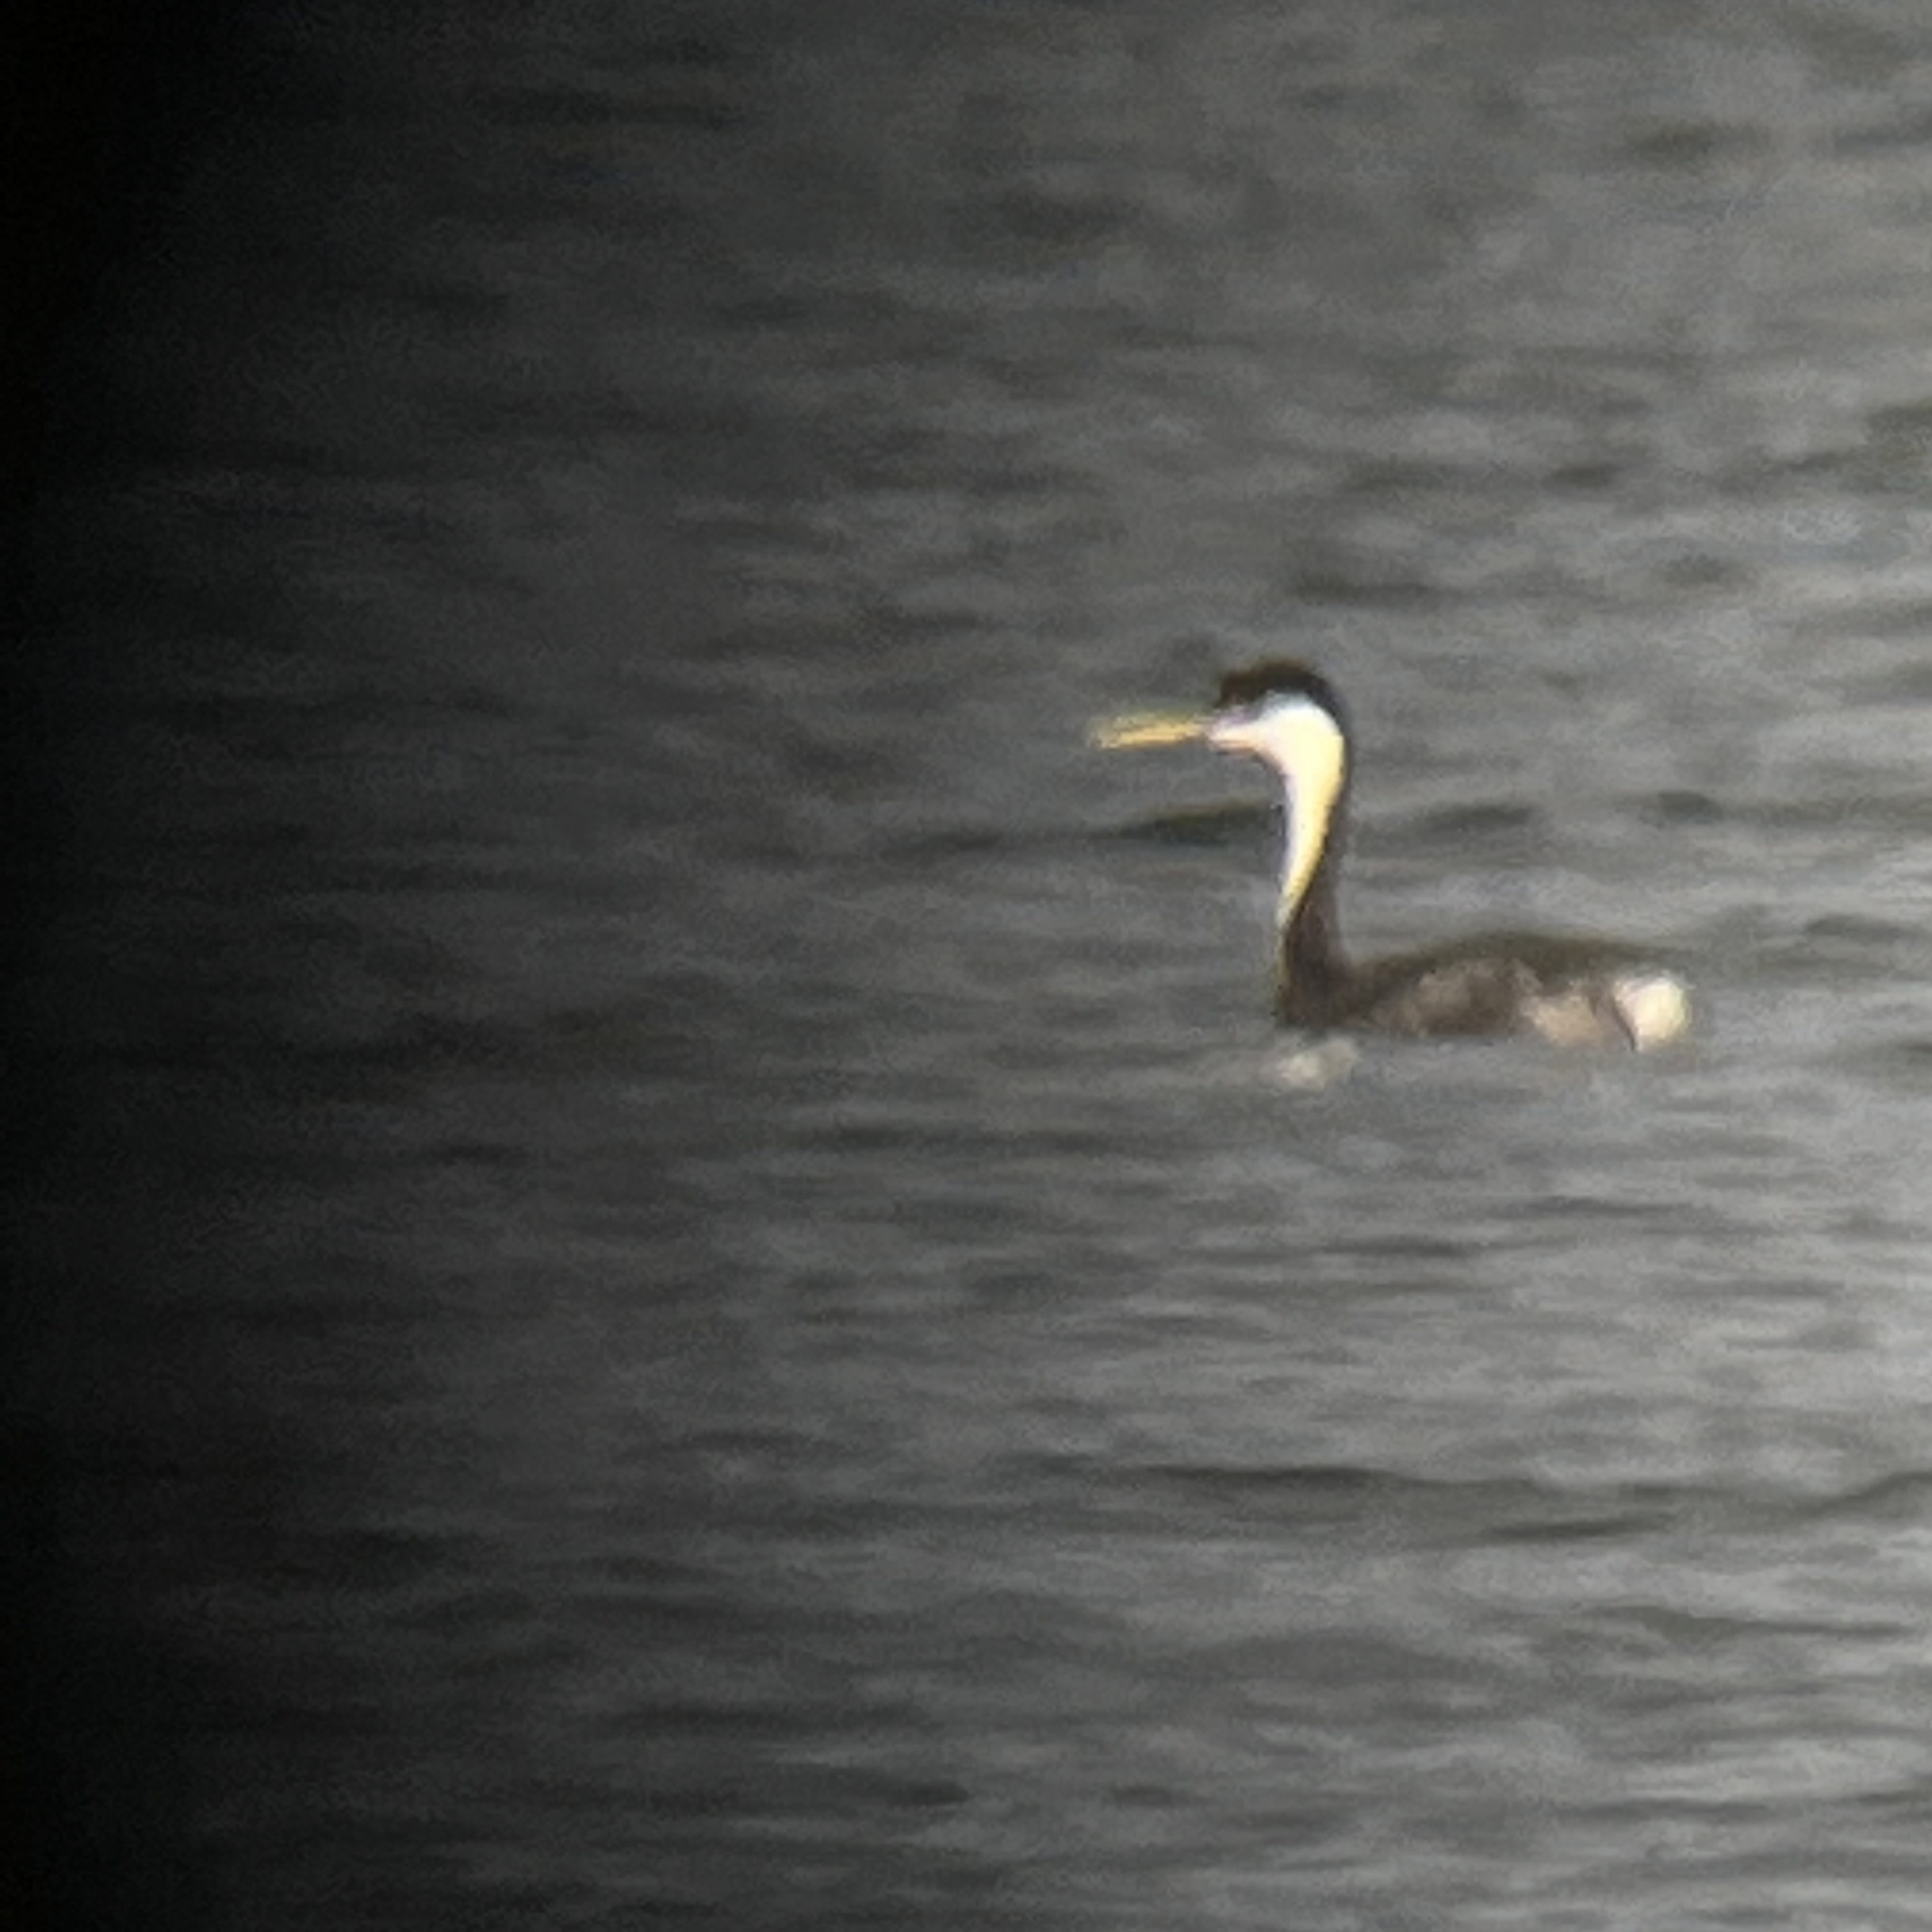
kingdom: Animalia
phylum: Chordata
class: Aves
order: Podicipediformes
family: Podicipedidae
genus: Aechmophorus
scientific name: Aechmophorus occidentalis
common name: Western grebe
